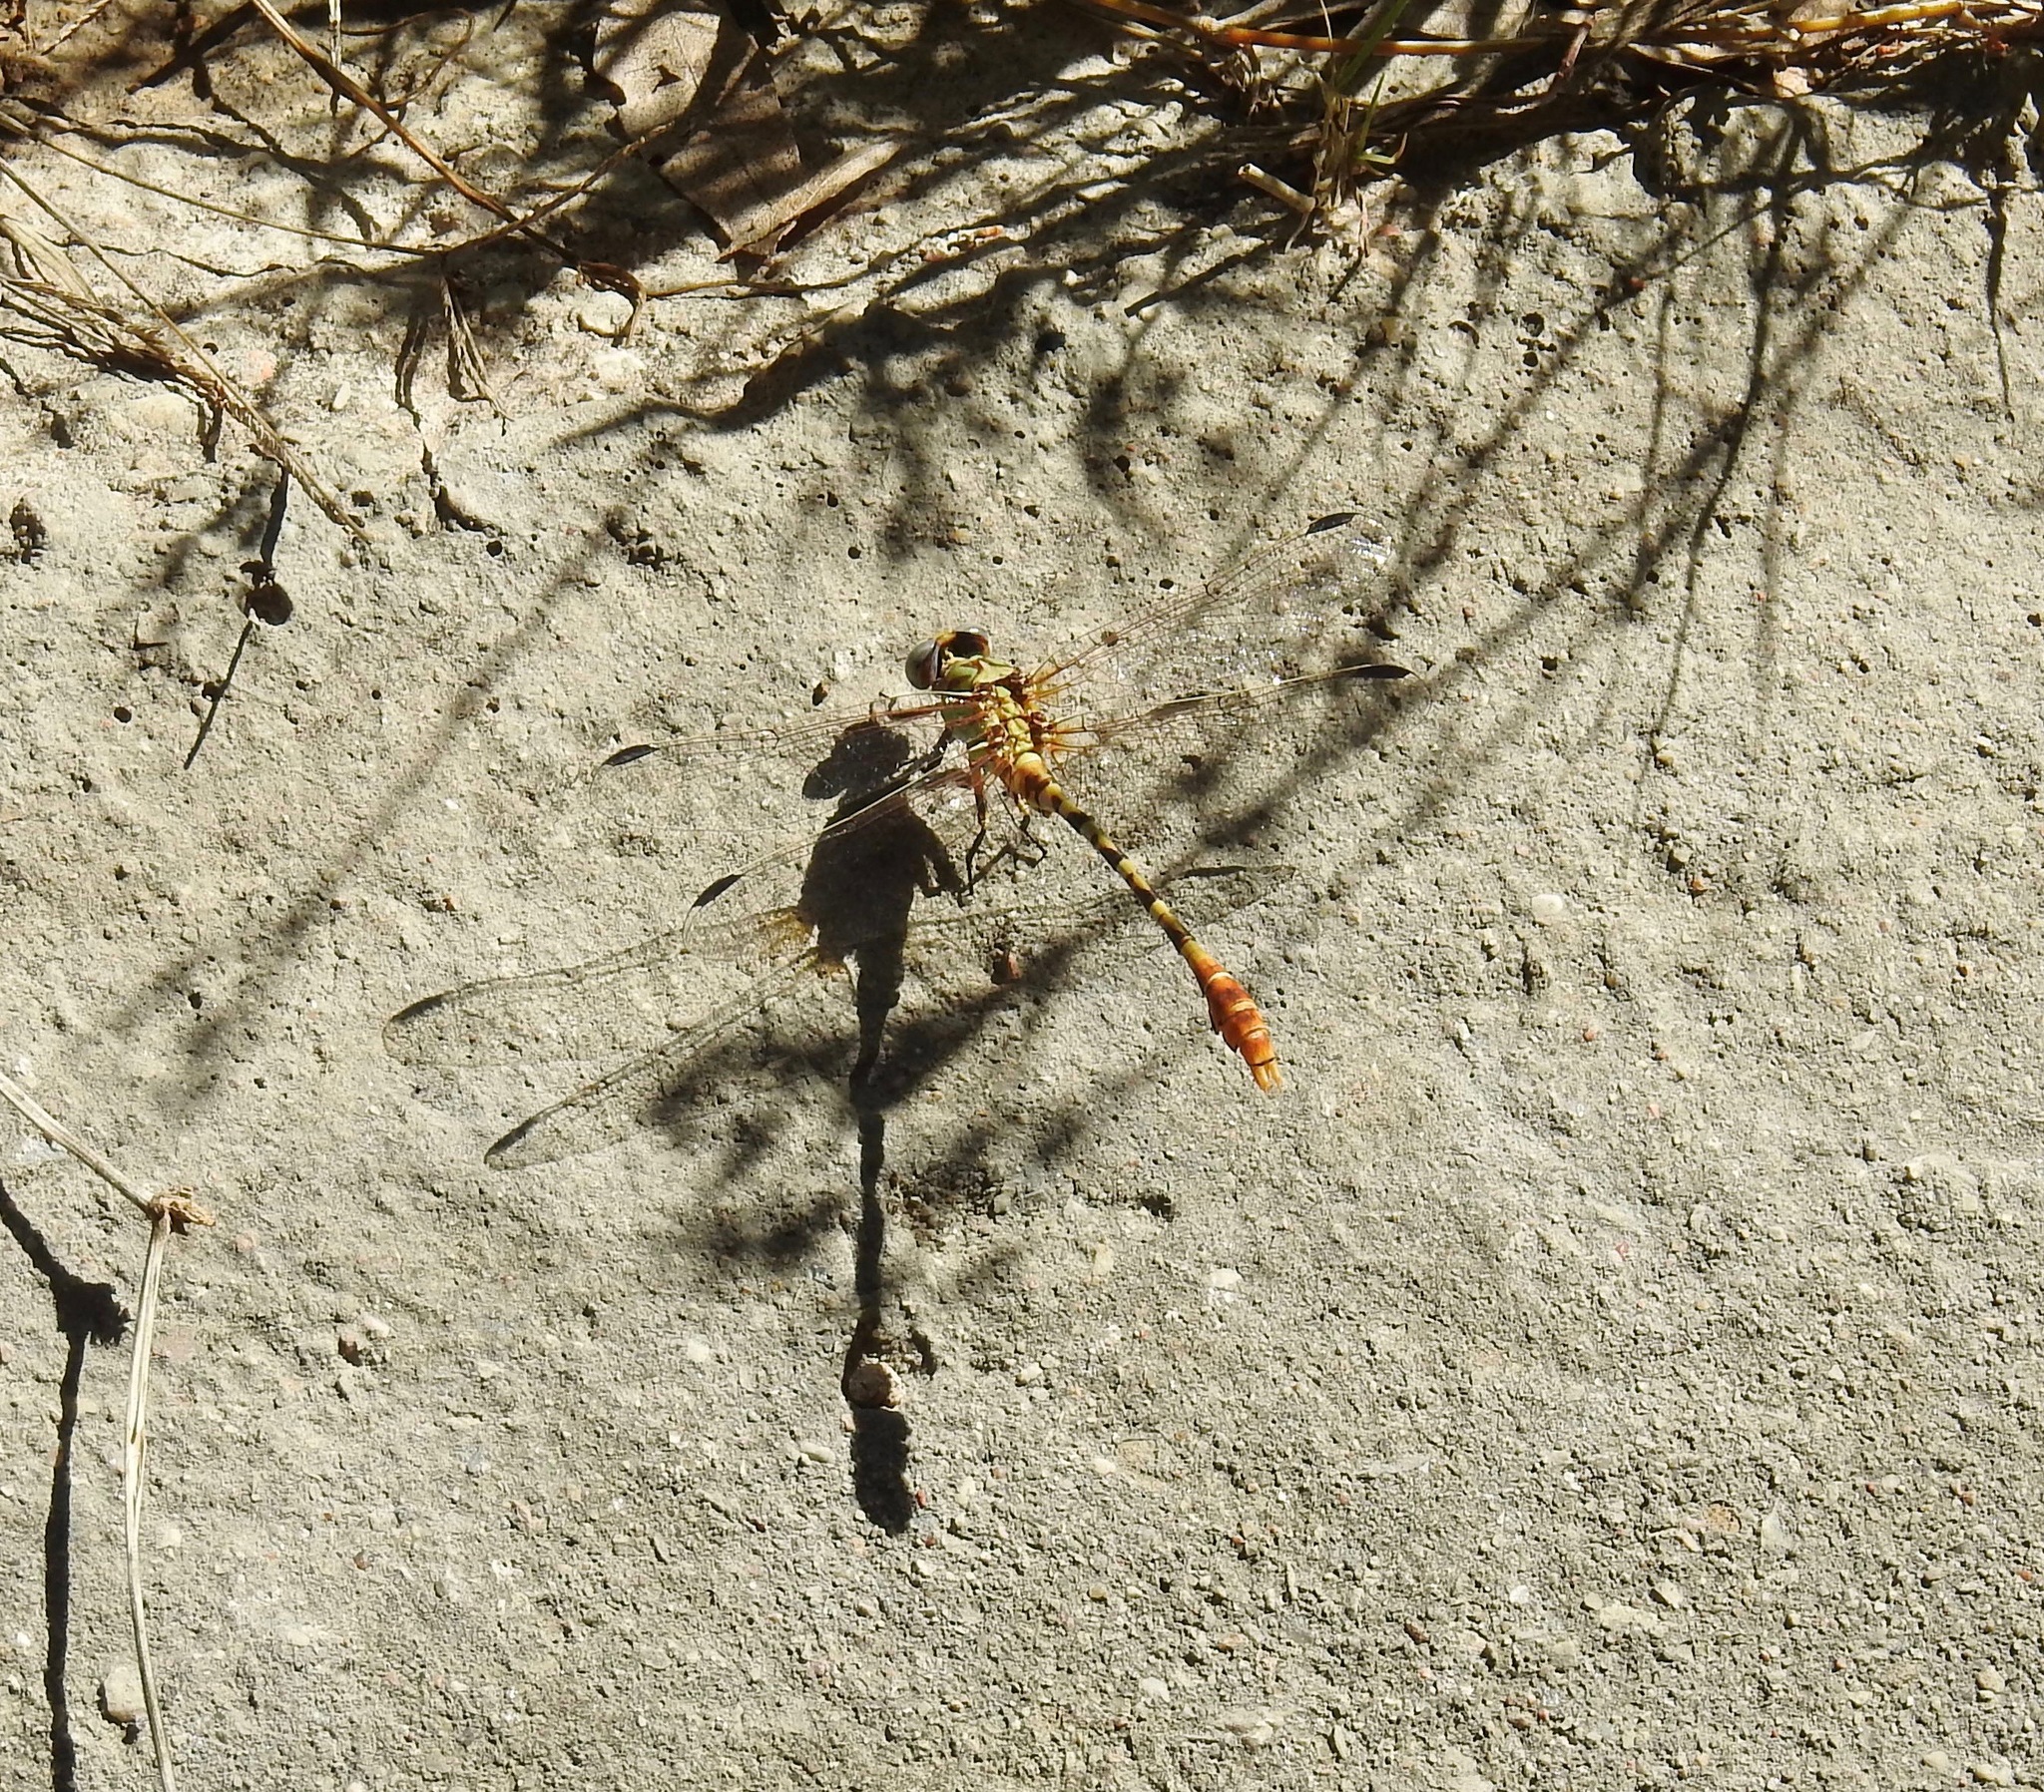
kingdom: Animalia
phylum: Arthropoda
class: Insecta
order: Odonata
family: Gomphidae
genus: Erpetogomphus
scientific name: Erpetogomphus designatus
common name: Eastern ringtail
